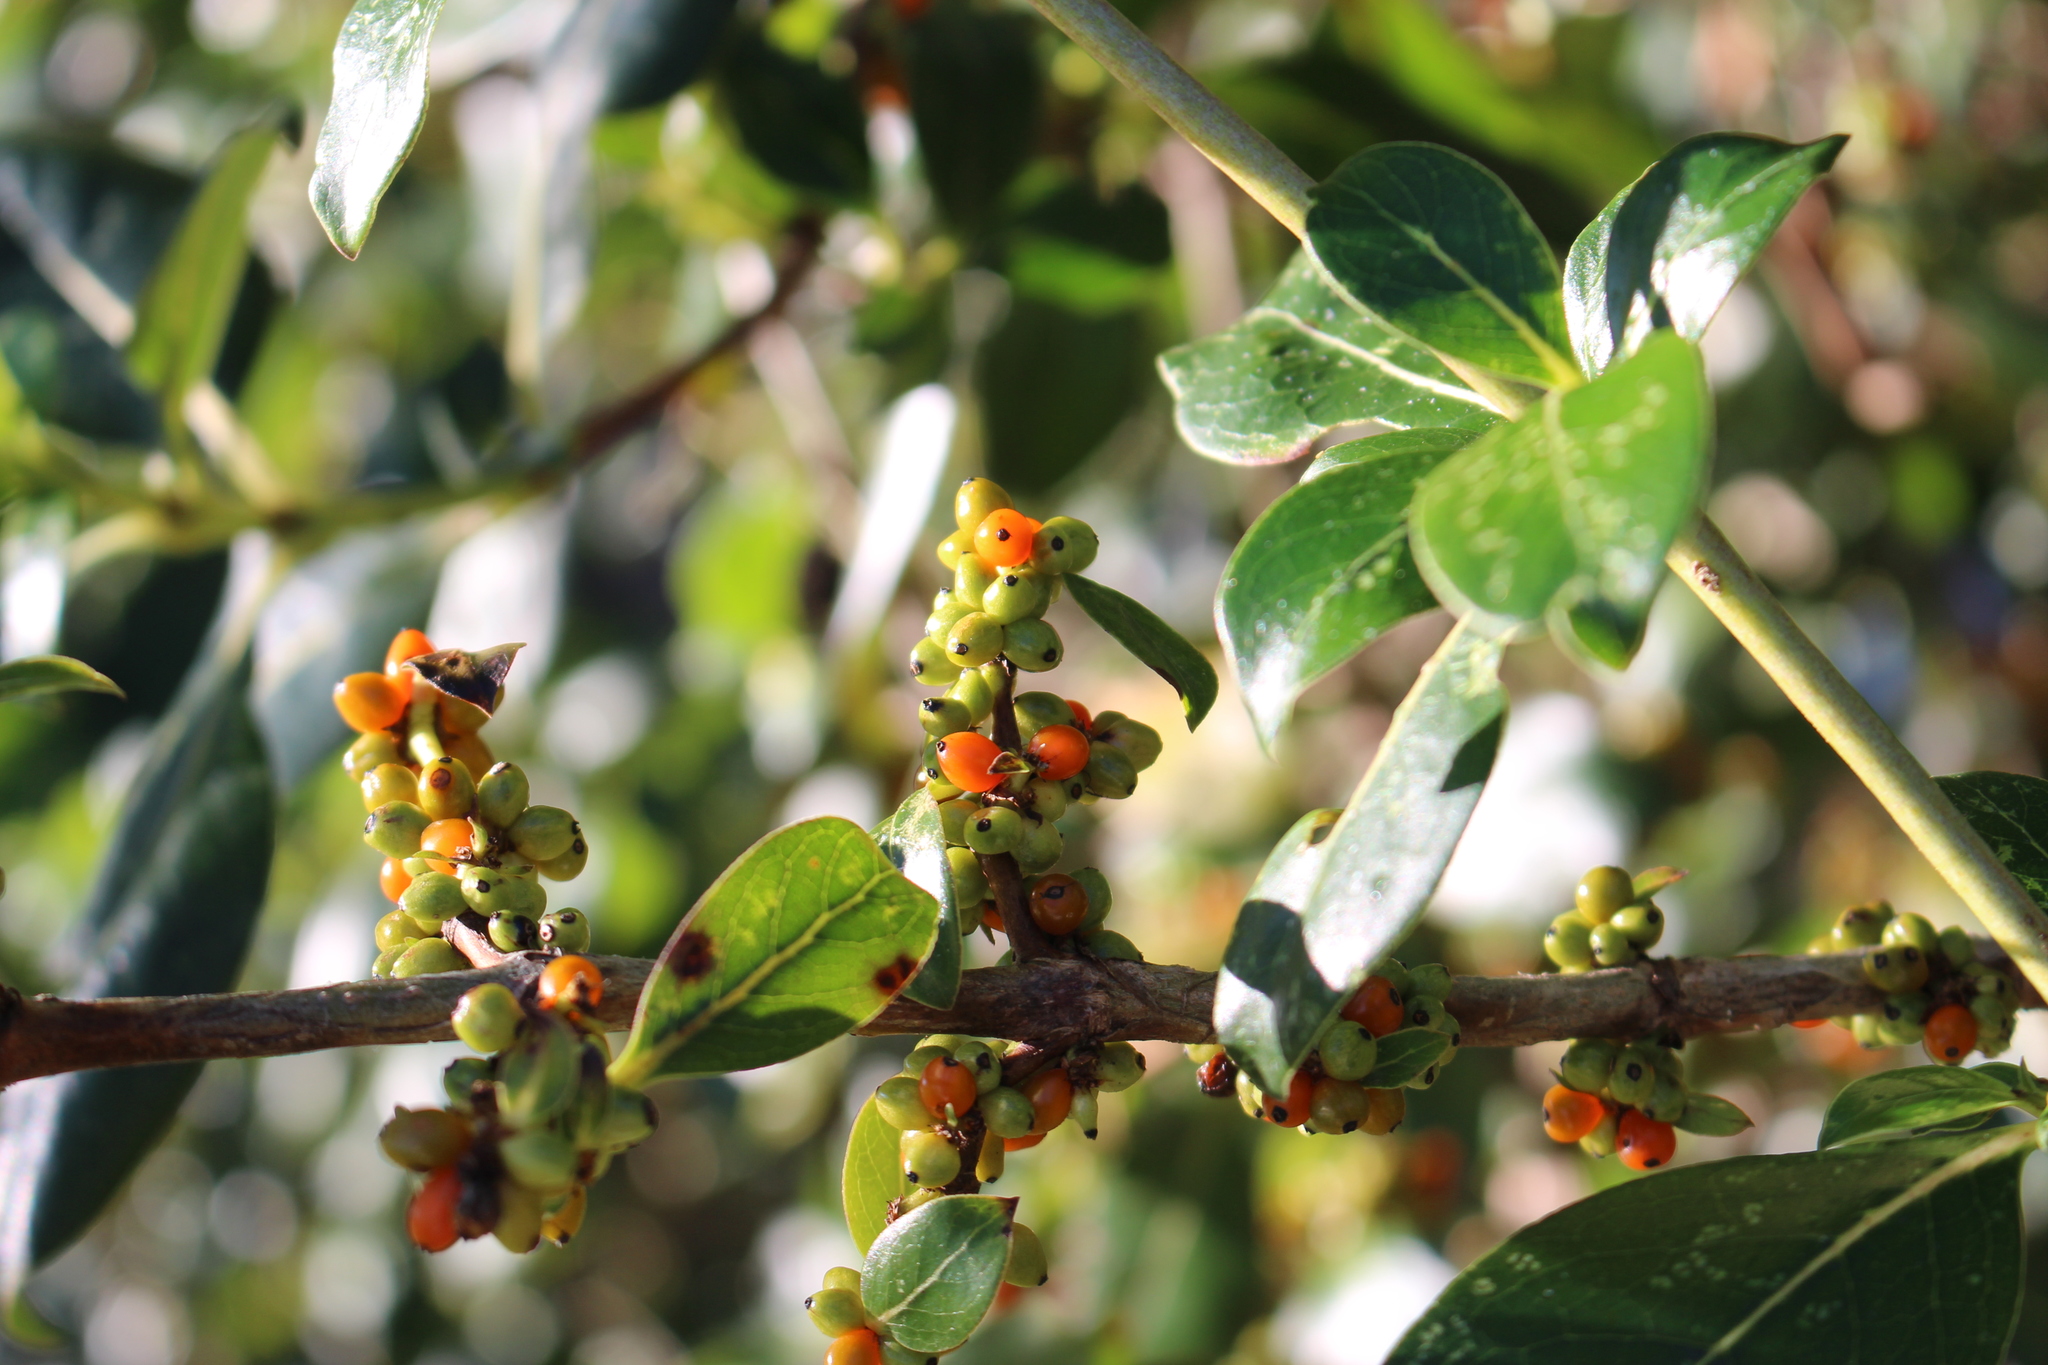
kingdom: Plantae
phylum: Tracheophyta
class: Magnoliopsida
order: Gentianales
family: Rubiaceae
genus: Coprosma
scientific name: Coprosma robusta
